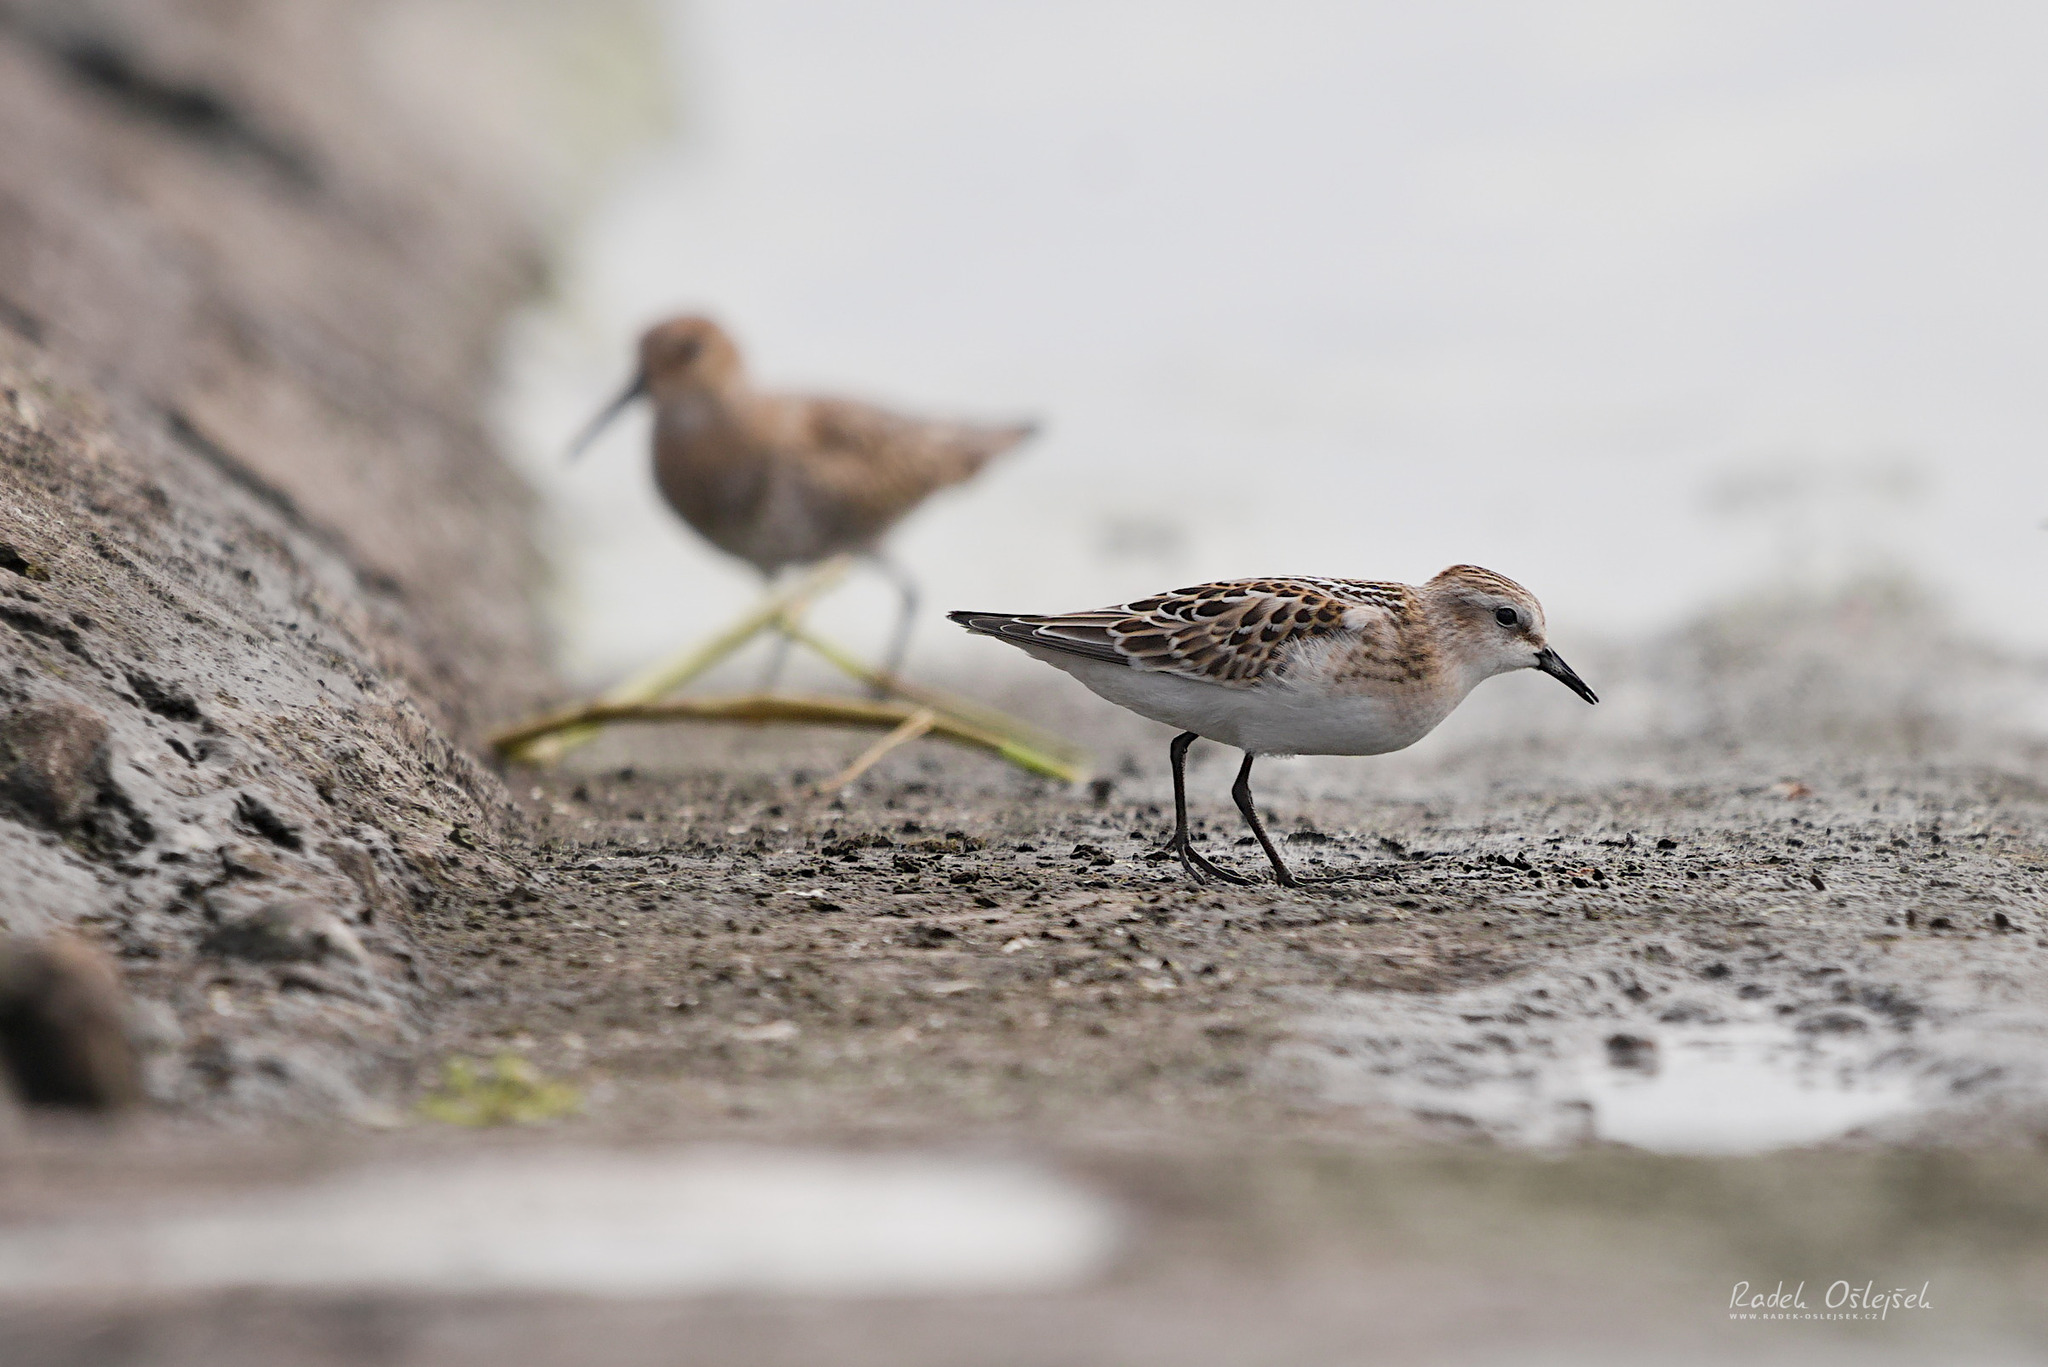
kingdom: Animalia
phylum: Chordata
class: Aves
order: Charadriiformes
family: Scolopacidae
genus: Calidris
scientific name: Calidris minuta
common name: Little stint
